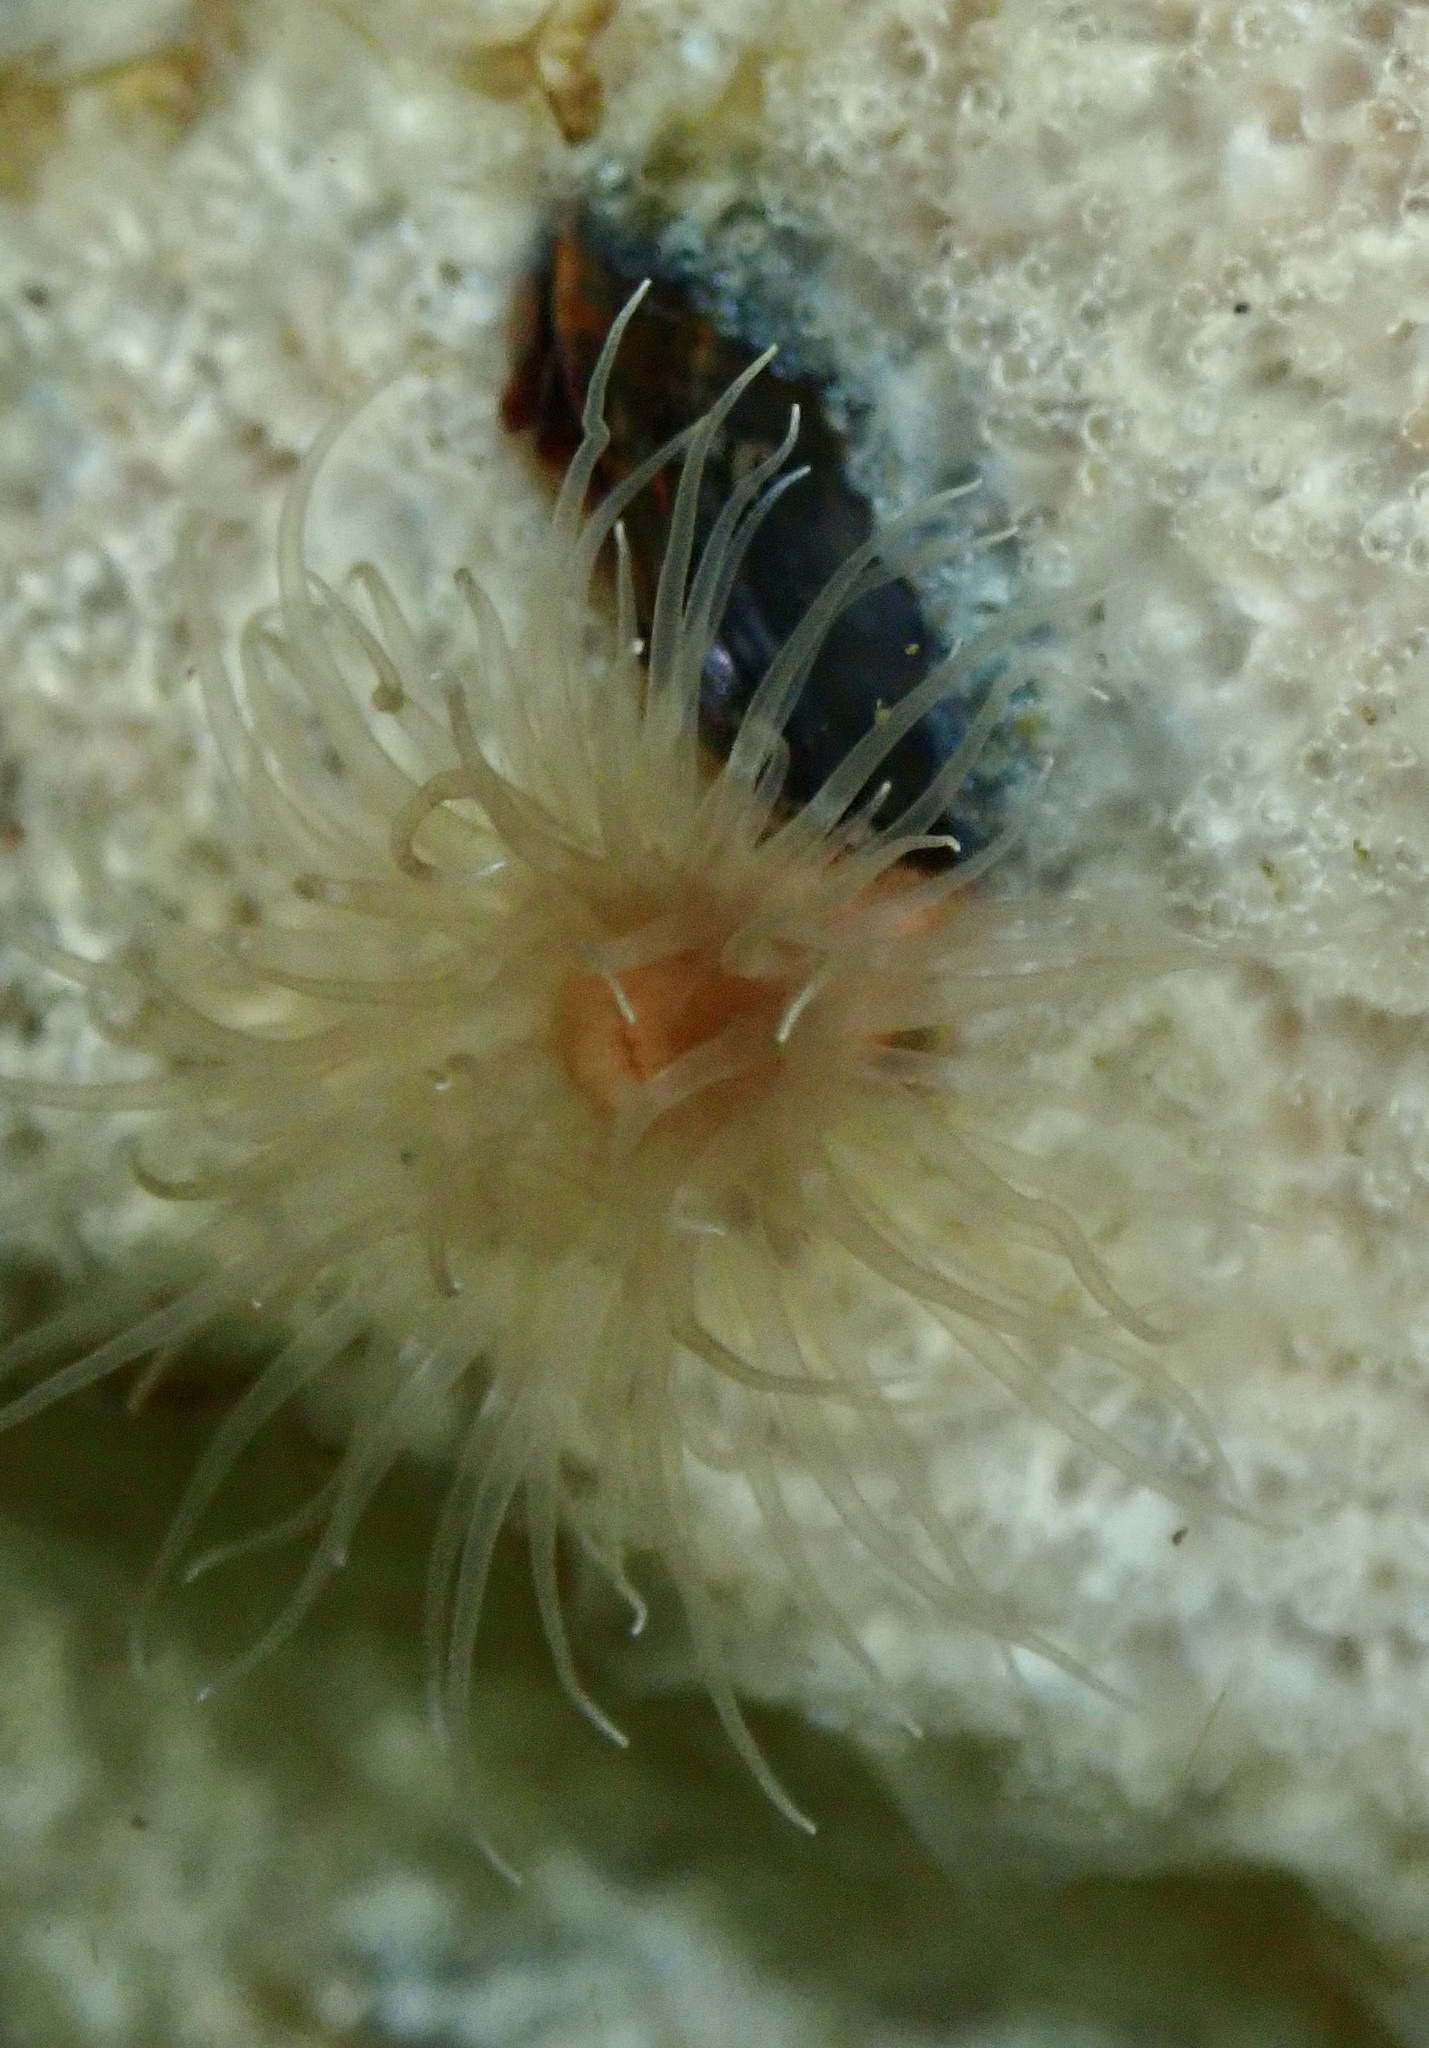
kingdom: Animalia
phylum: Cnidaria
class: Anthozoa
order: Actiniaria
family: Diadumenidae
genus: Diadumene
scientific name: Diadumene cincta
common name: Orange anemone
